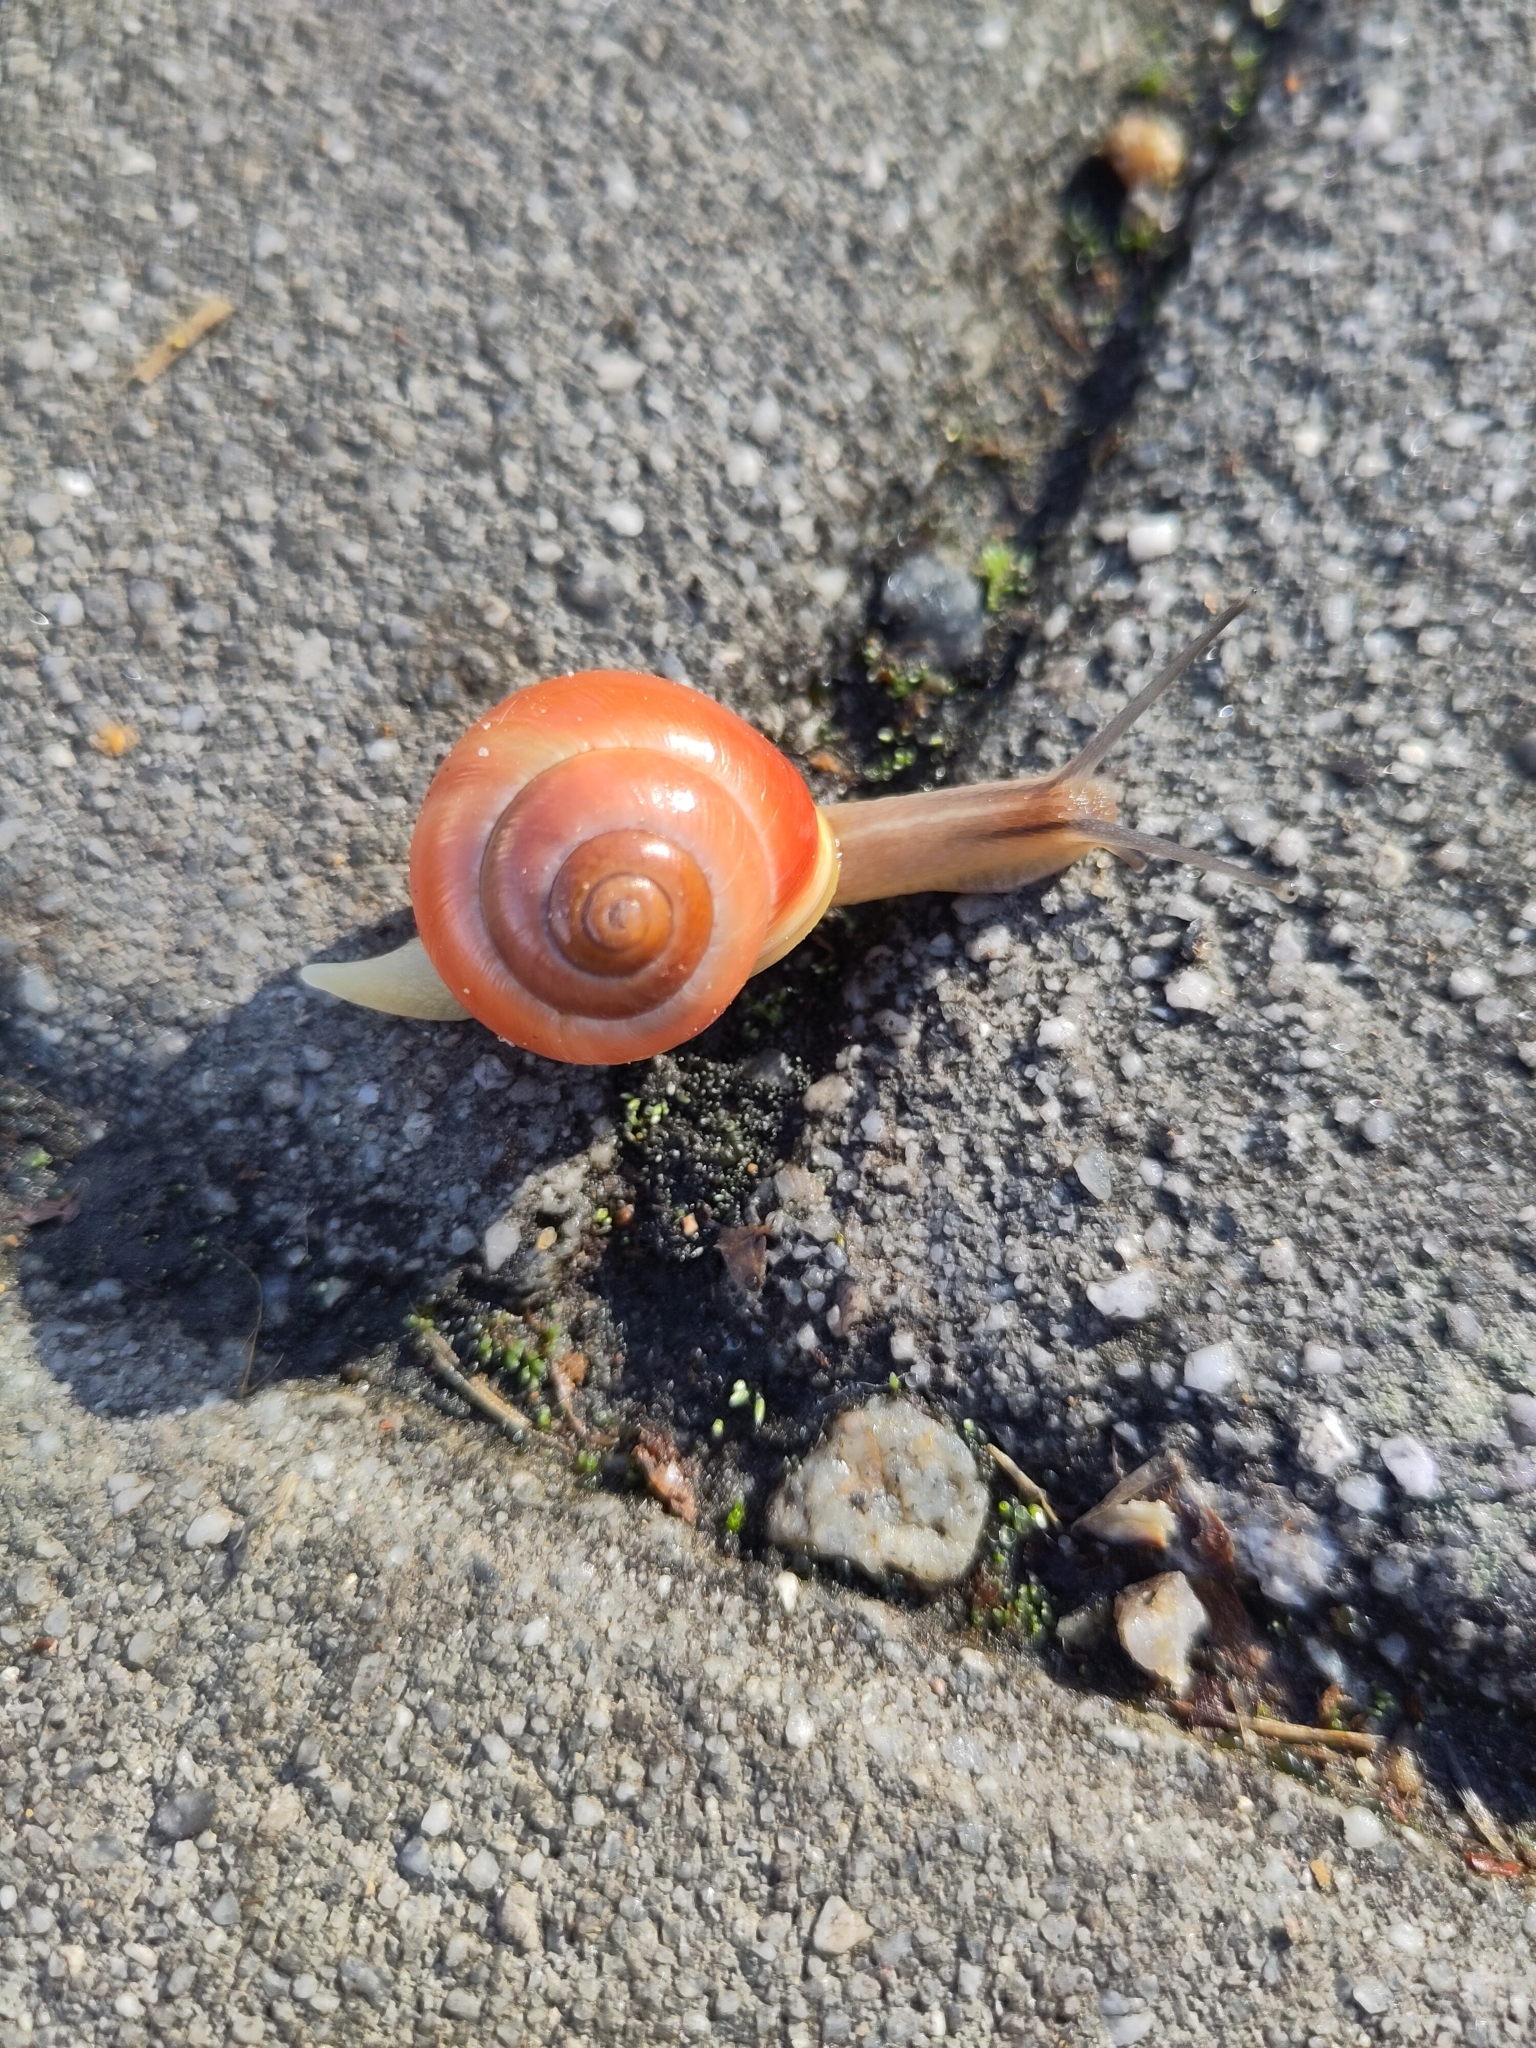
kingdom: Animalia
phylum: Mollusca
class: Gastropoda
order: Stylommatophora
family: Helicidae
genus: Cepaea
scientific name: Cepaea hortensis
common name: White-lip gardensnail
